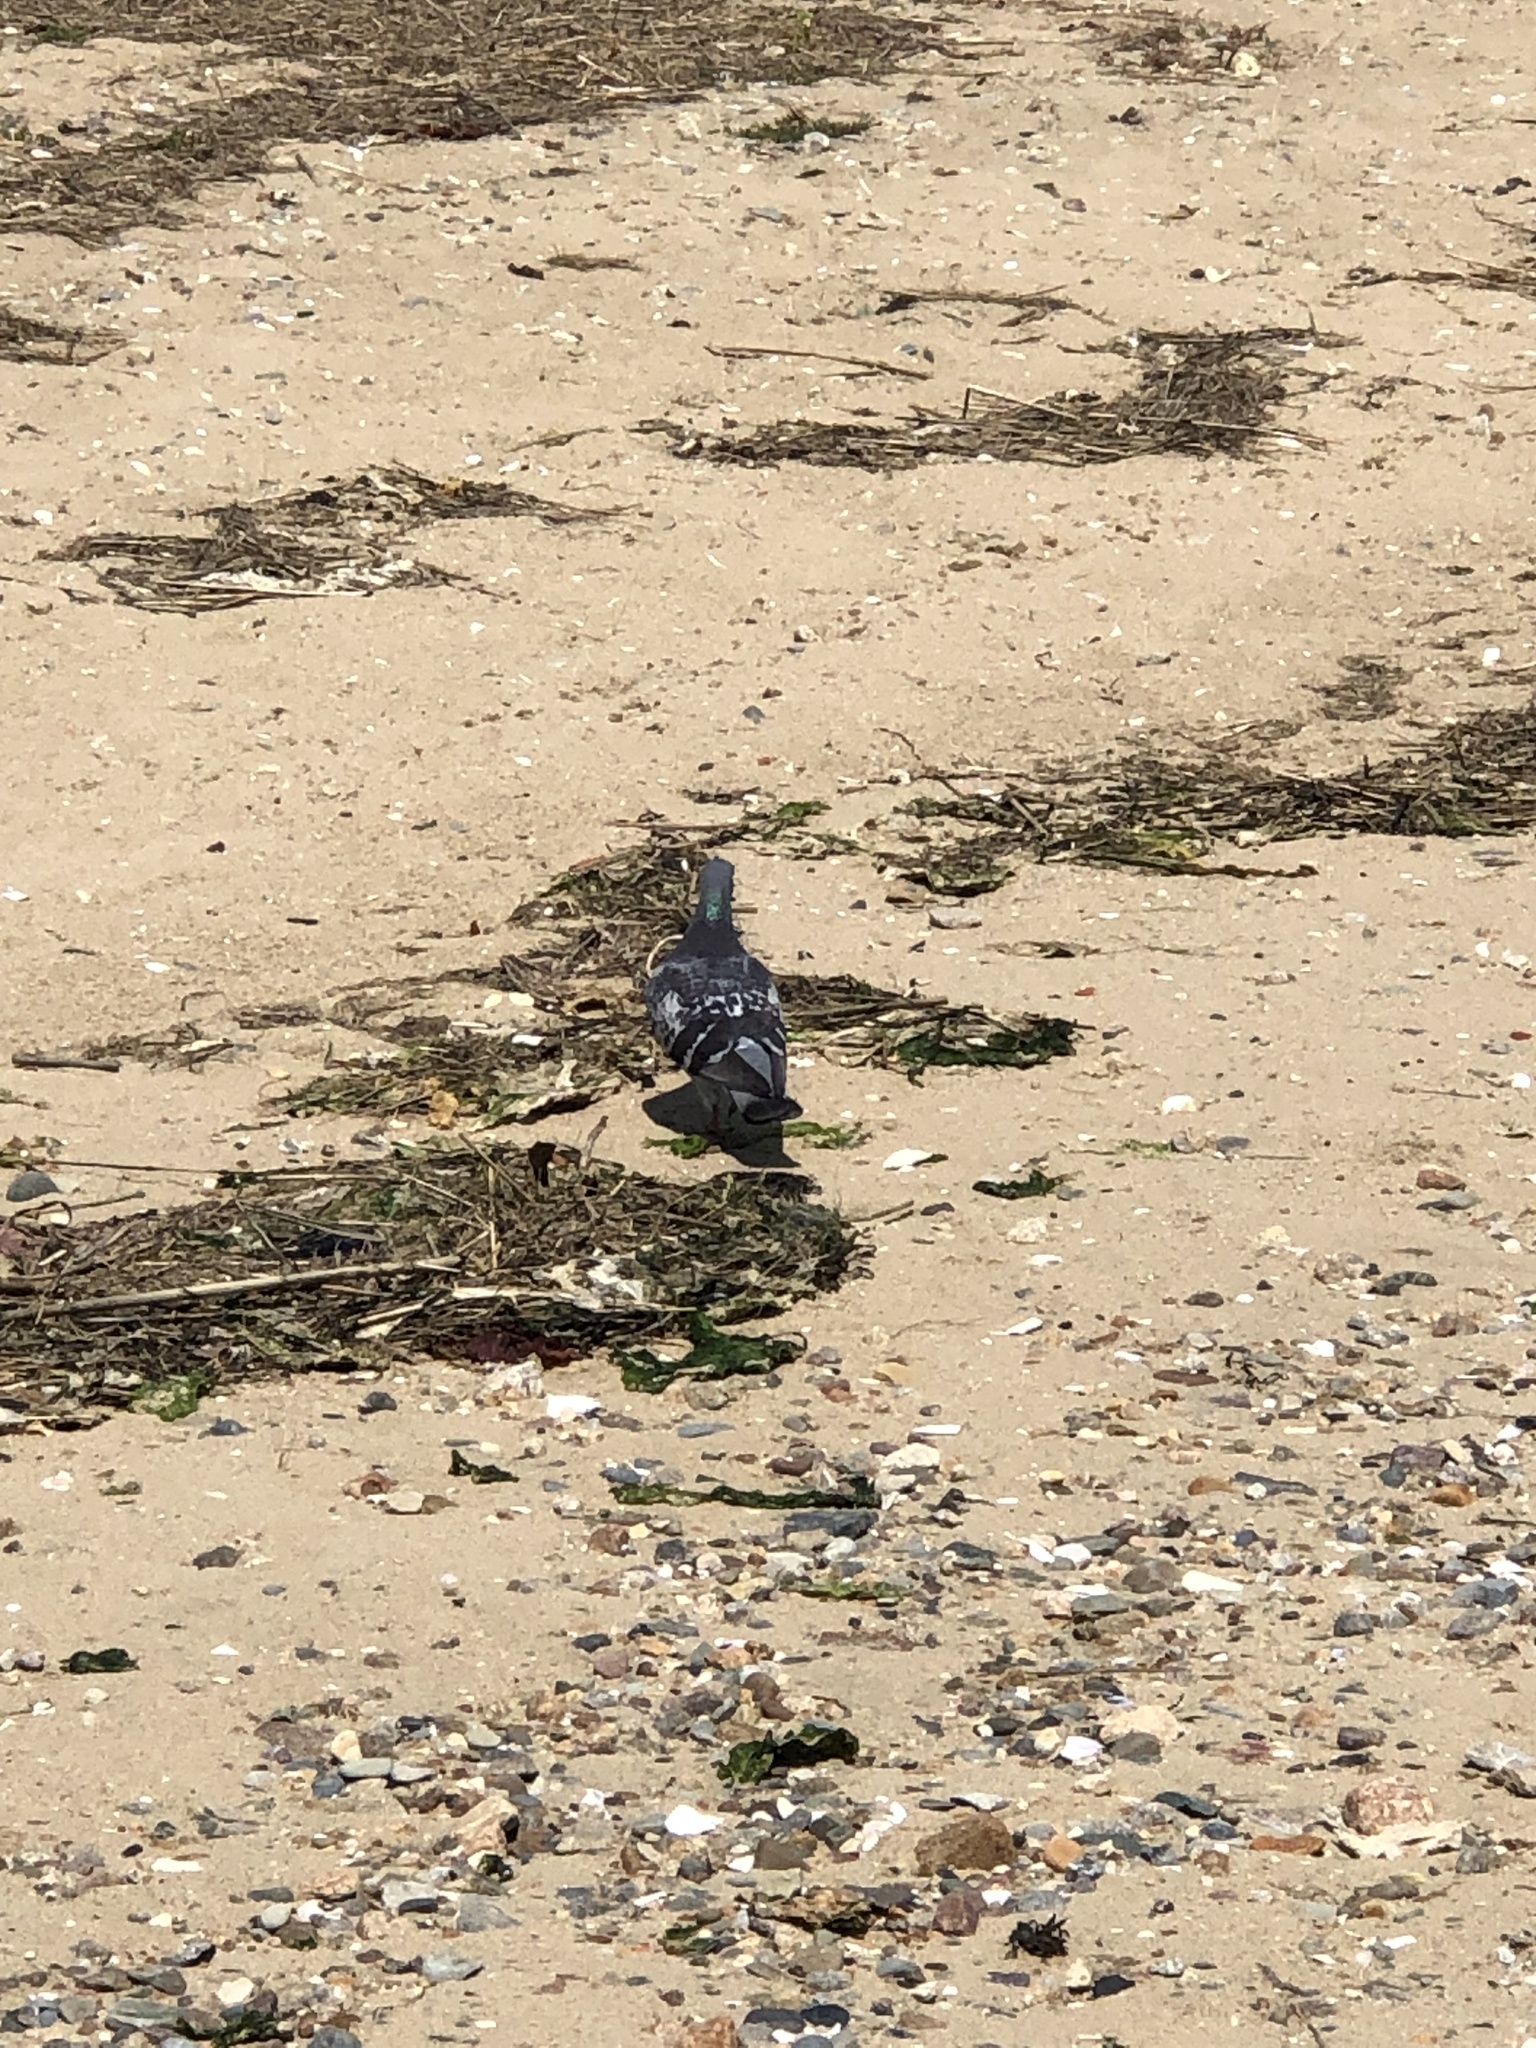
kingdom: Animalia
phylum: Chordata
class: Aves
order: Columbiformes
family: Columbidae
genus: Columba
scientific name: Columba livia
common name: Rock pigeon
